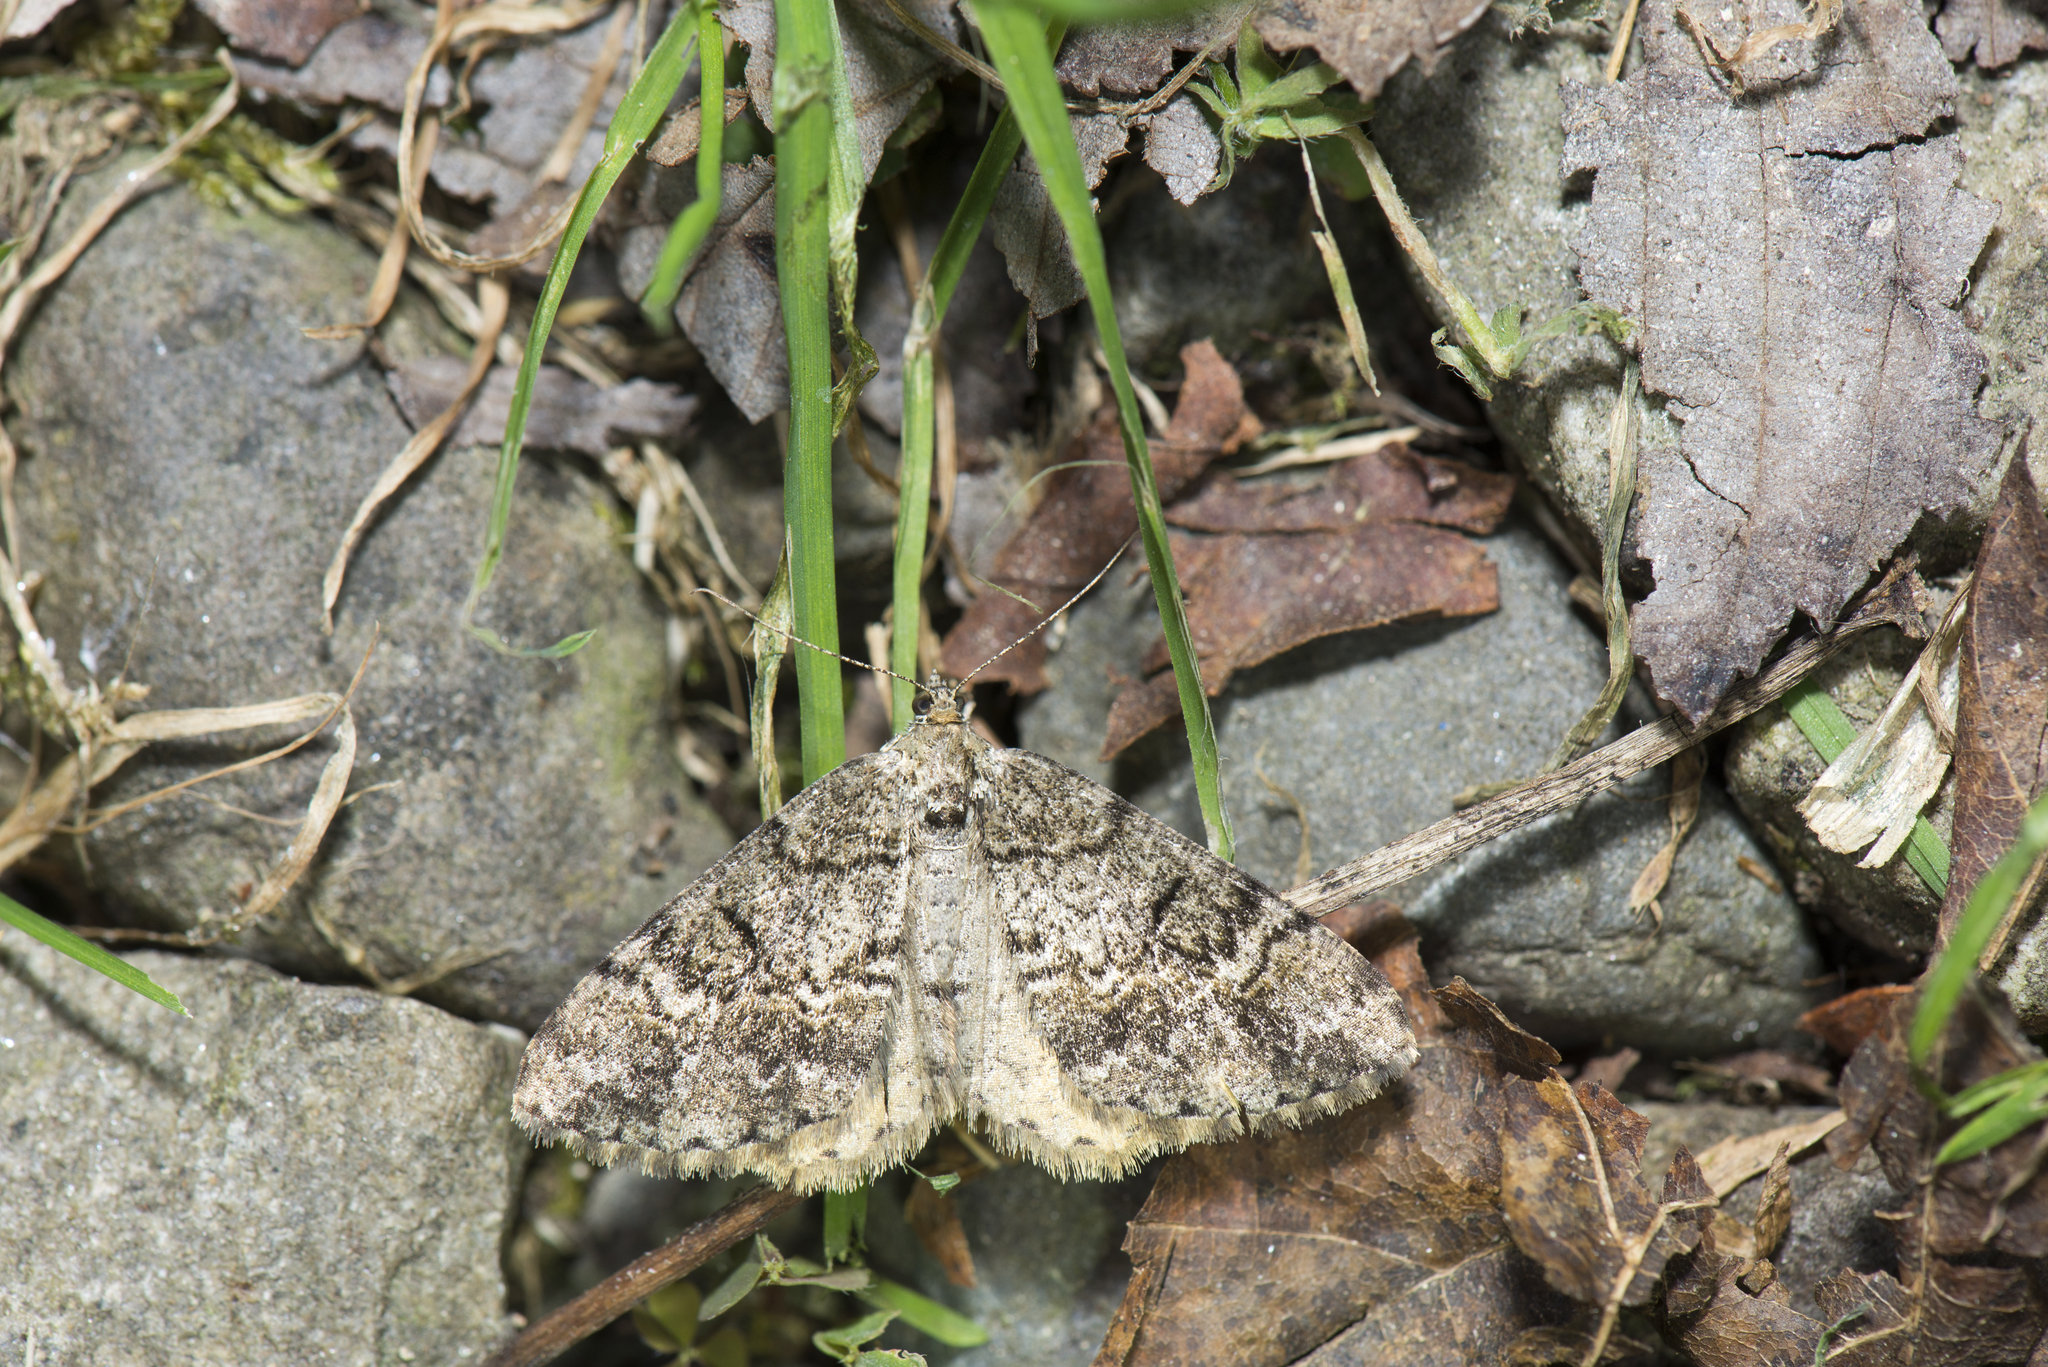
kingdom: Animalia
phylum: Arthropoda
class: Insecta
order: Lepidoptera
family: Geometridae
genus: Alcis
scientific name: Alcis postlurida
